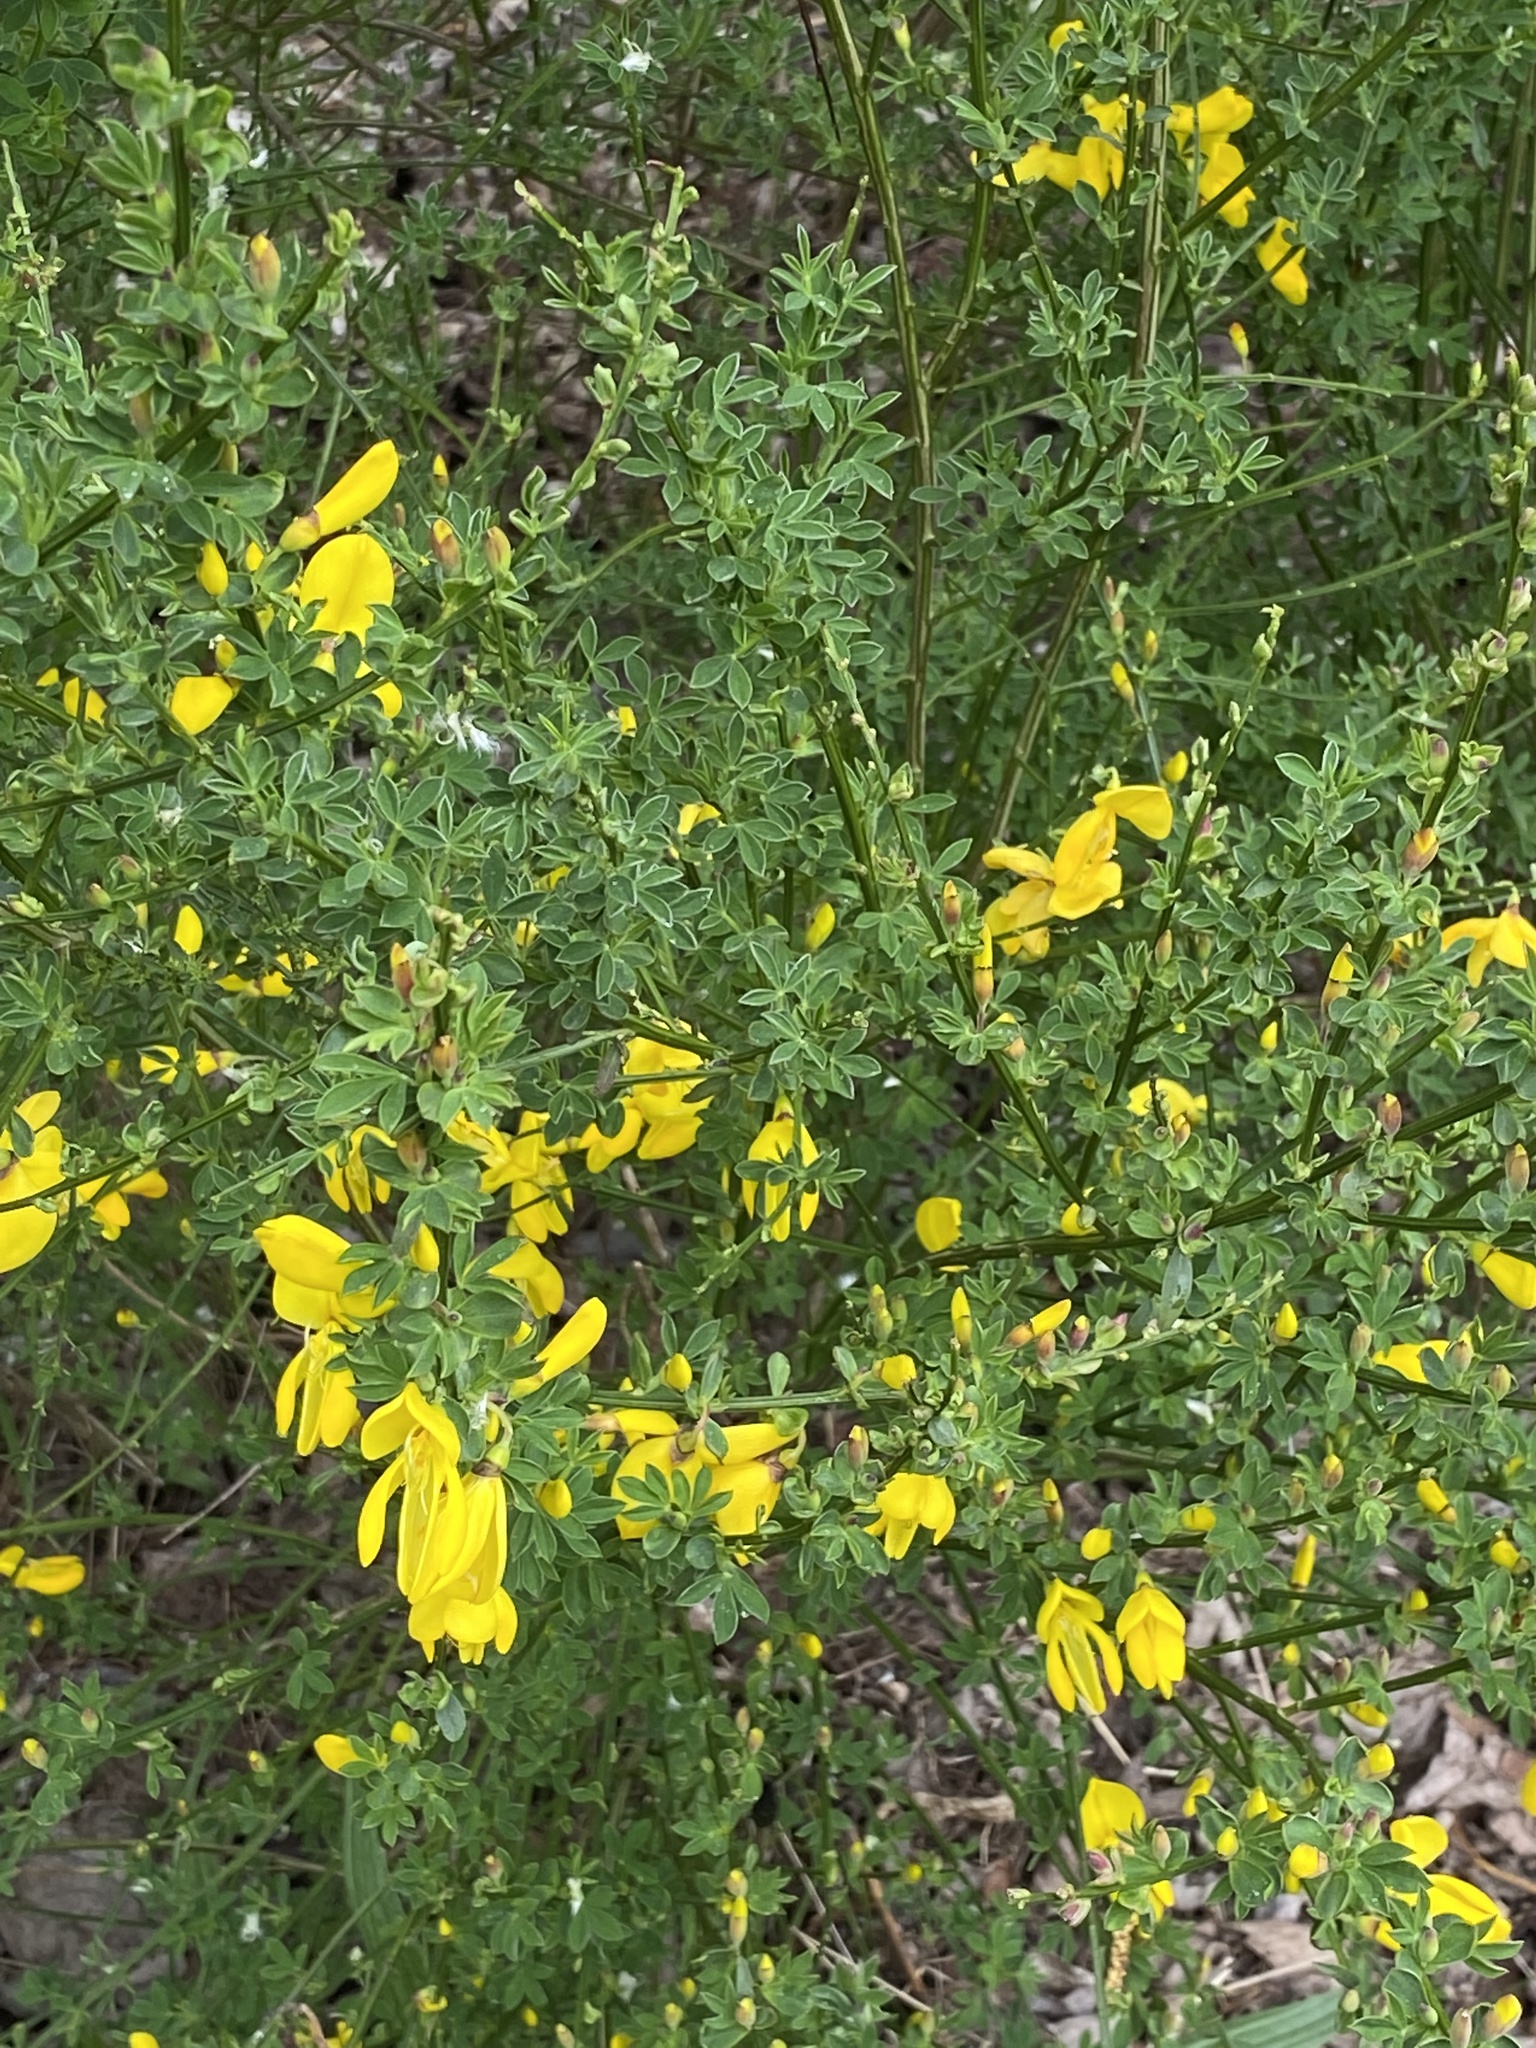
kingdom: Plantae
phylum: Tracheophyta
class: Magnoliopsida
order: Fabales
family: Fabaceae
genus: Cytisus
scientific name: Cytisus scoparius
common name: Scotch broom
